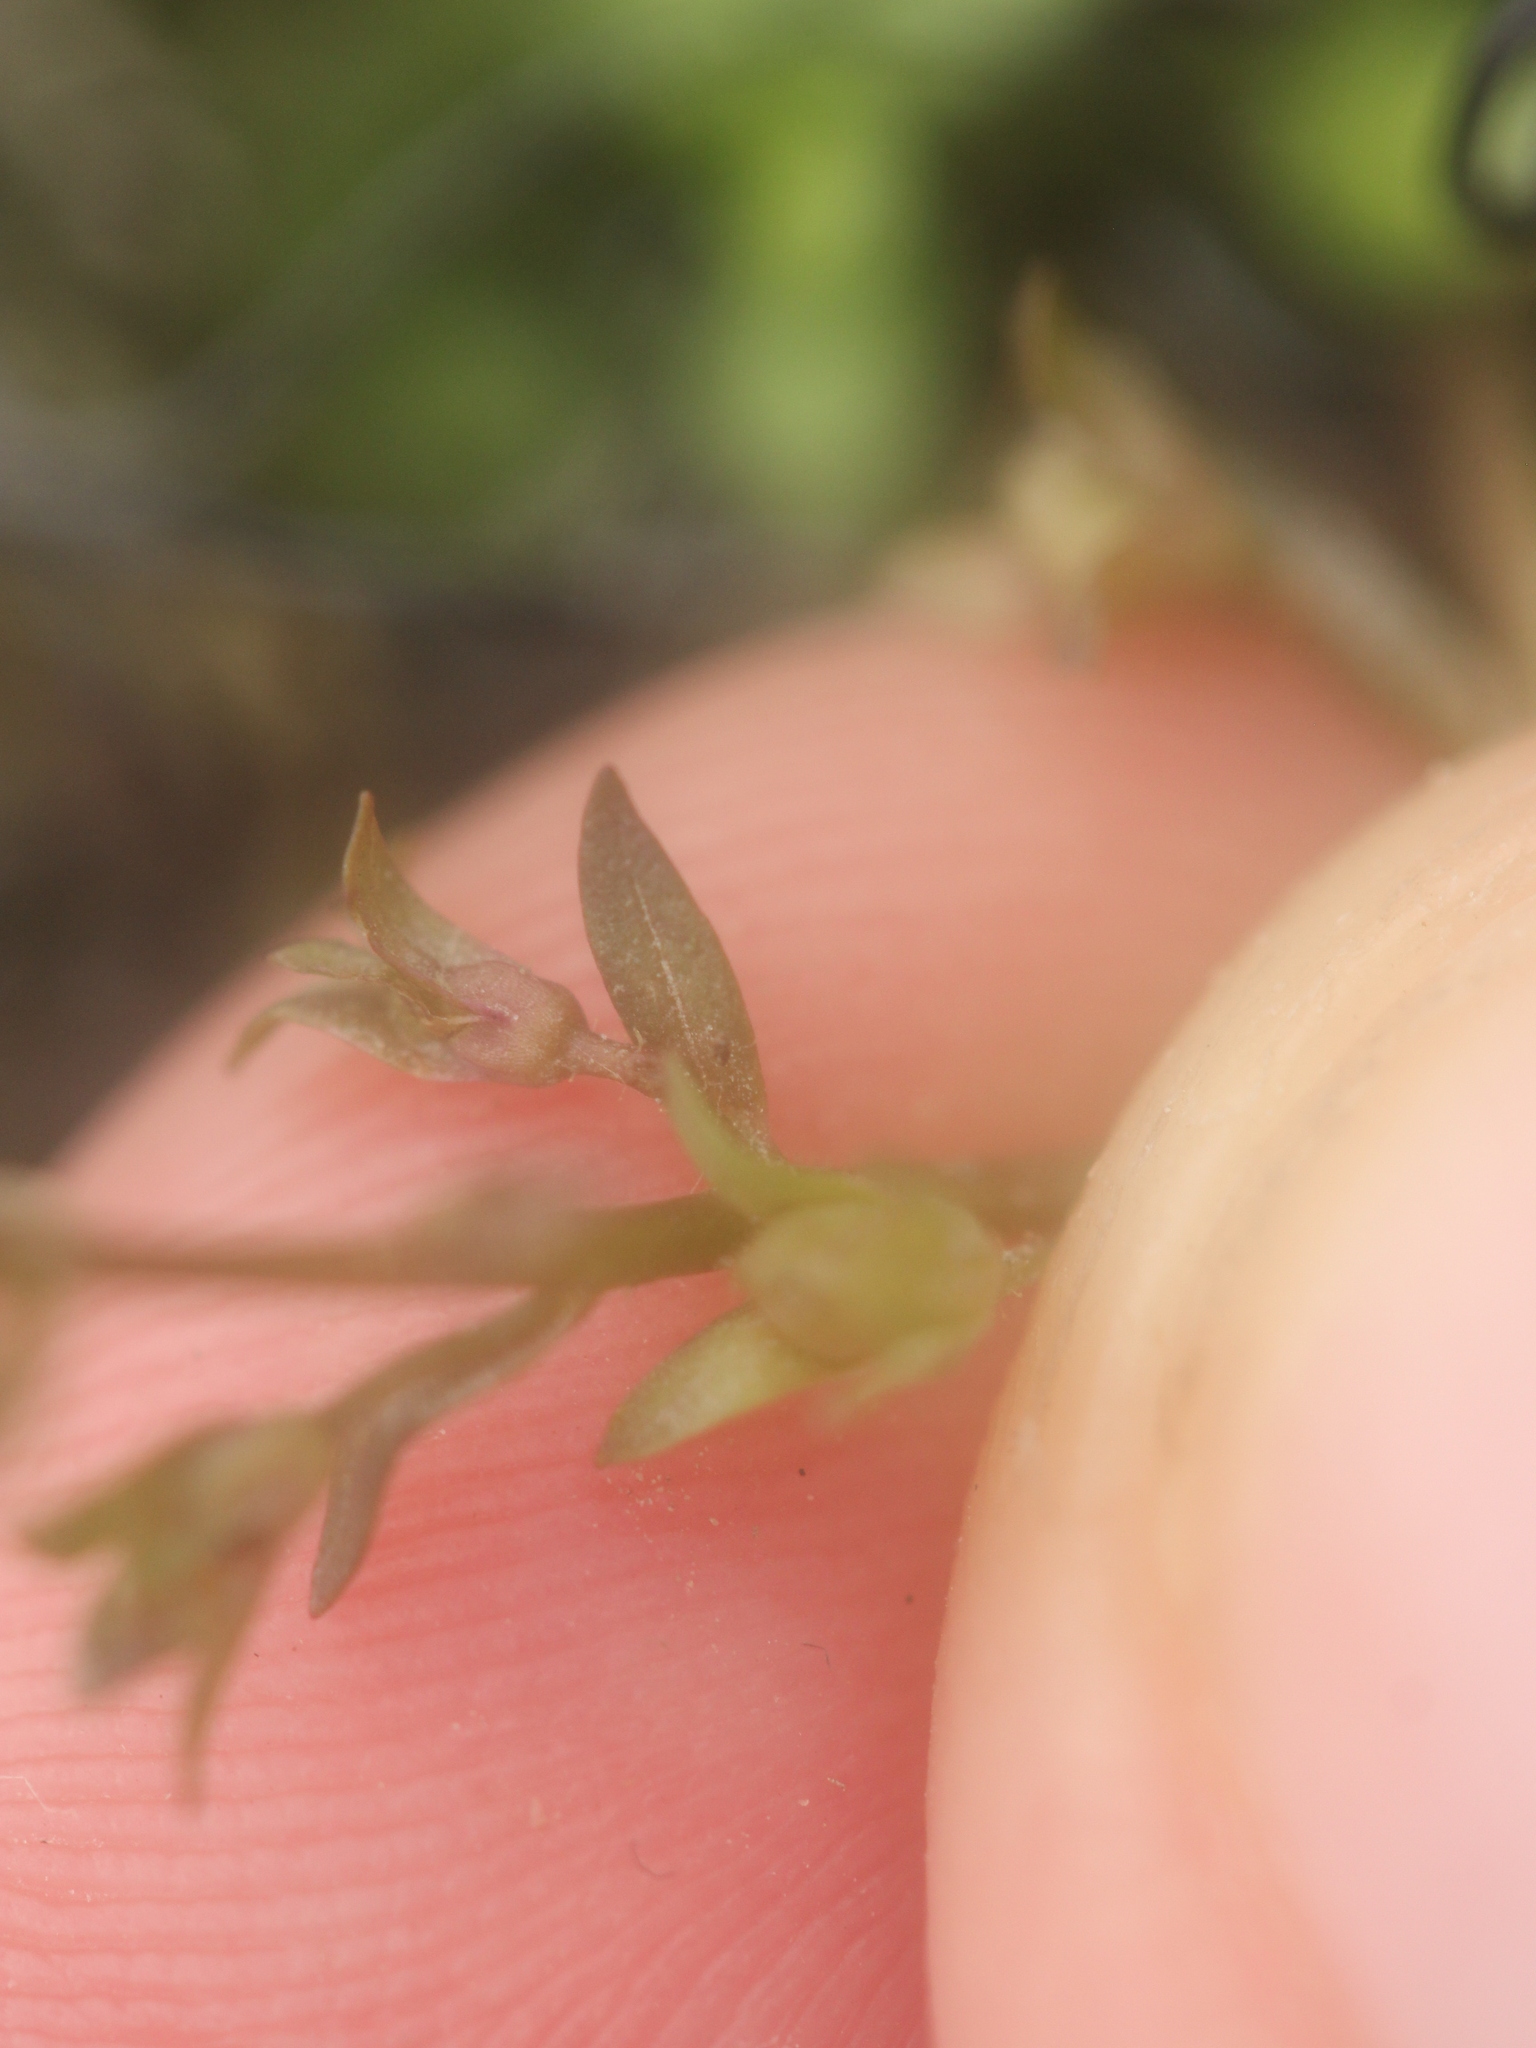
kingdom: Plantae
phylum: Tracheophyta
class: Magnoliopsida
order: Lamiales
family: Plantaginaceae
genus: Veronica
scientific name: Veronica catenata
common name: Pink water-speedwell
